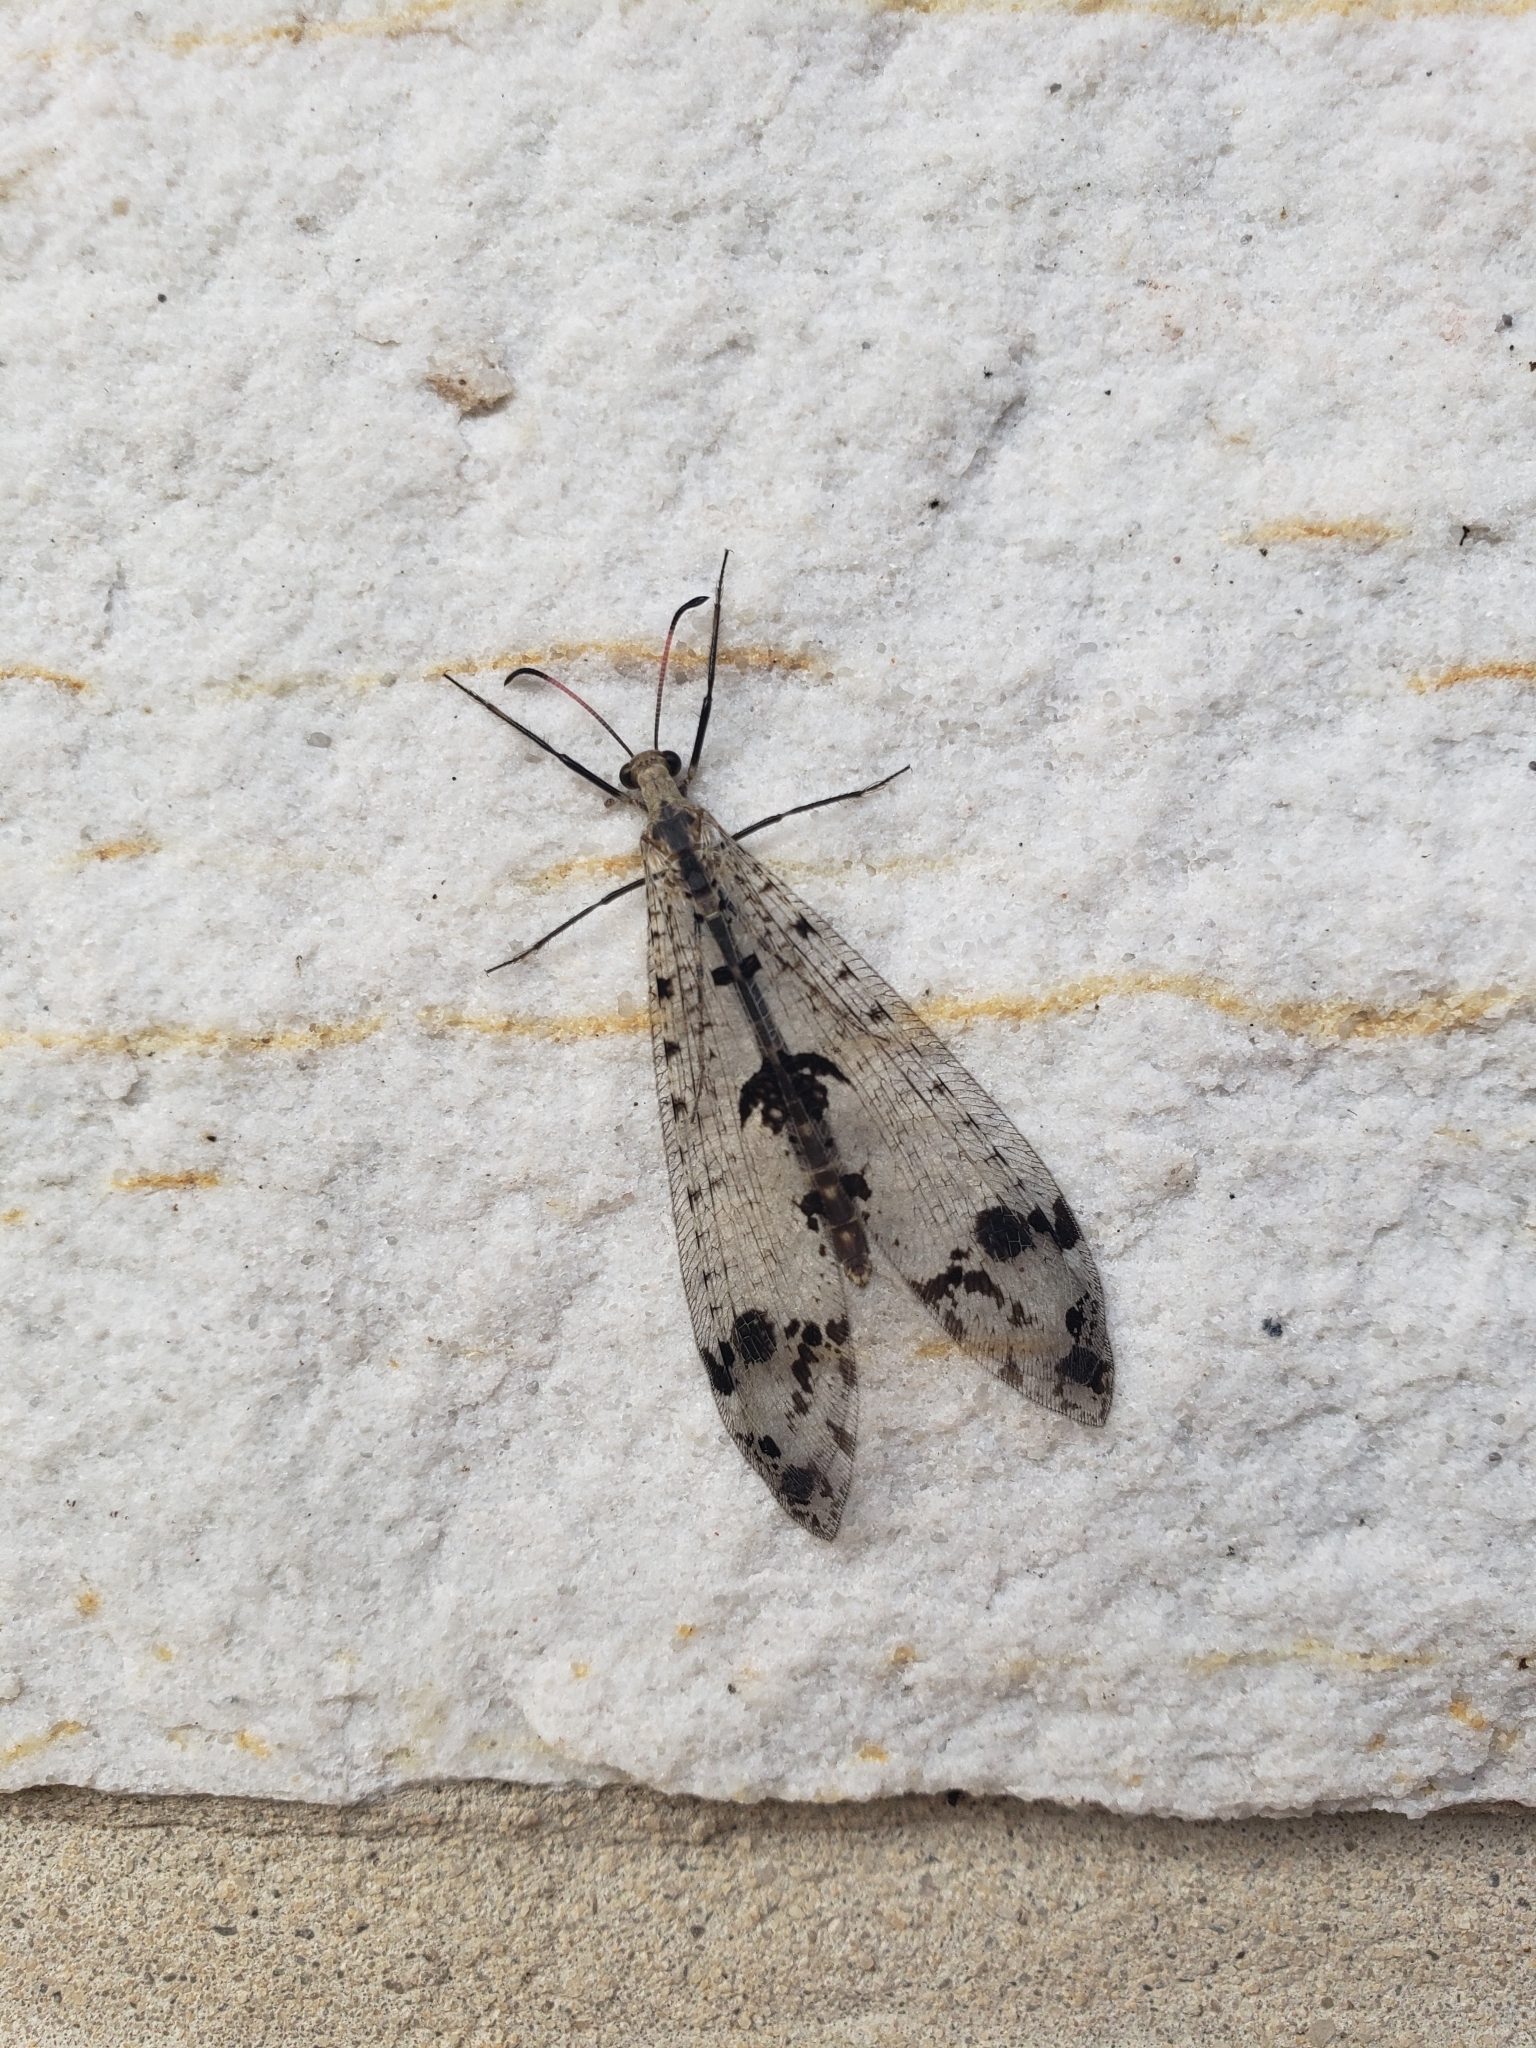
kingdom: Animalia
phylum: Arthropoda
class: Insecta
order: Neuroptera
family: Myrmeleontidae
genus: Dendroleon
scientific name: Dendroleon obsoletus
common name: Eastern spotted-winged antlion
